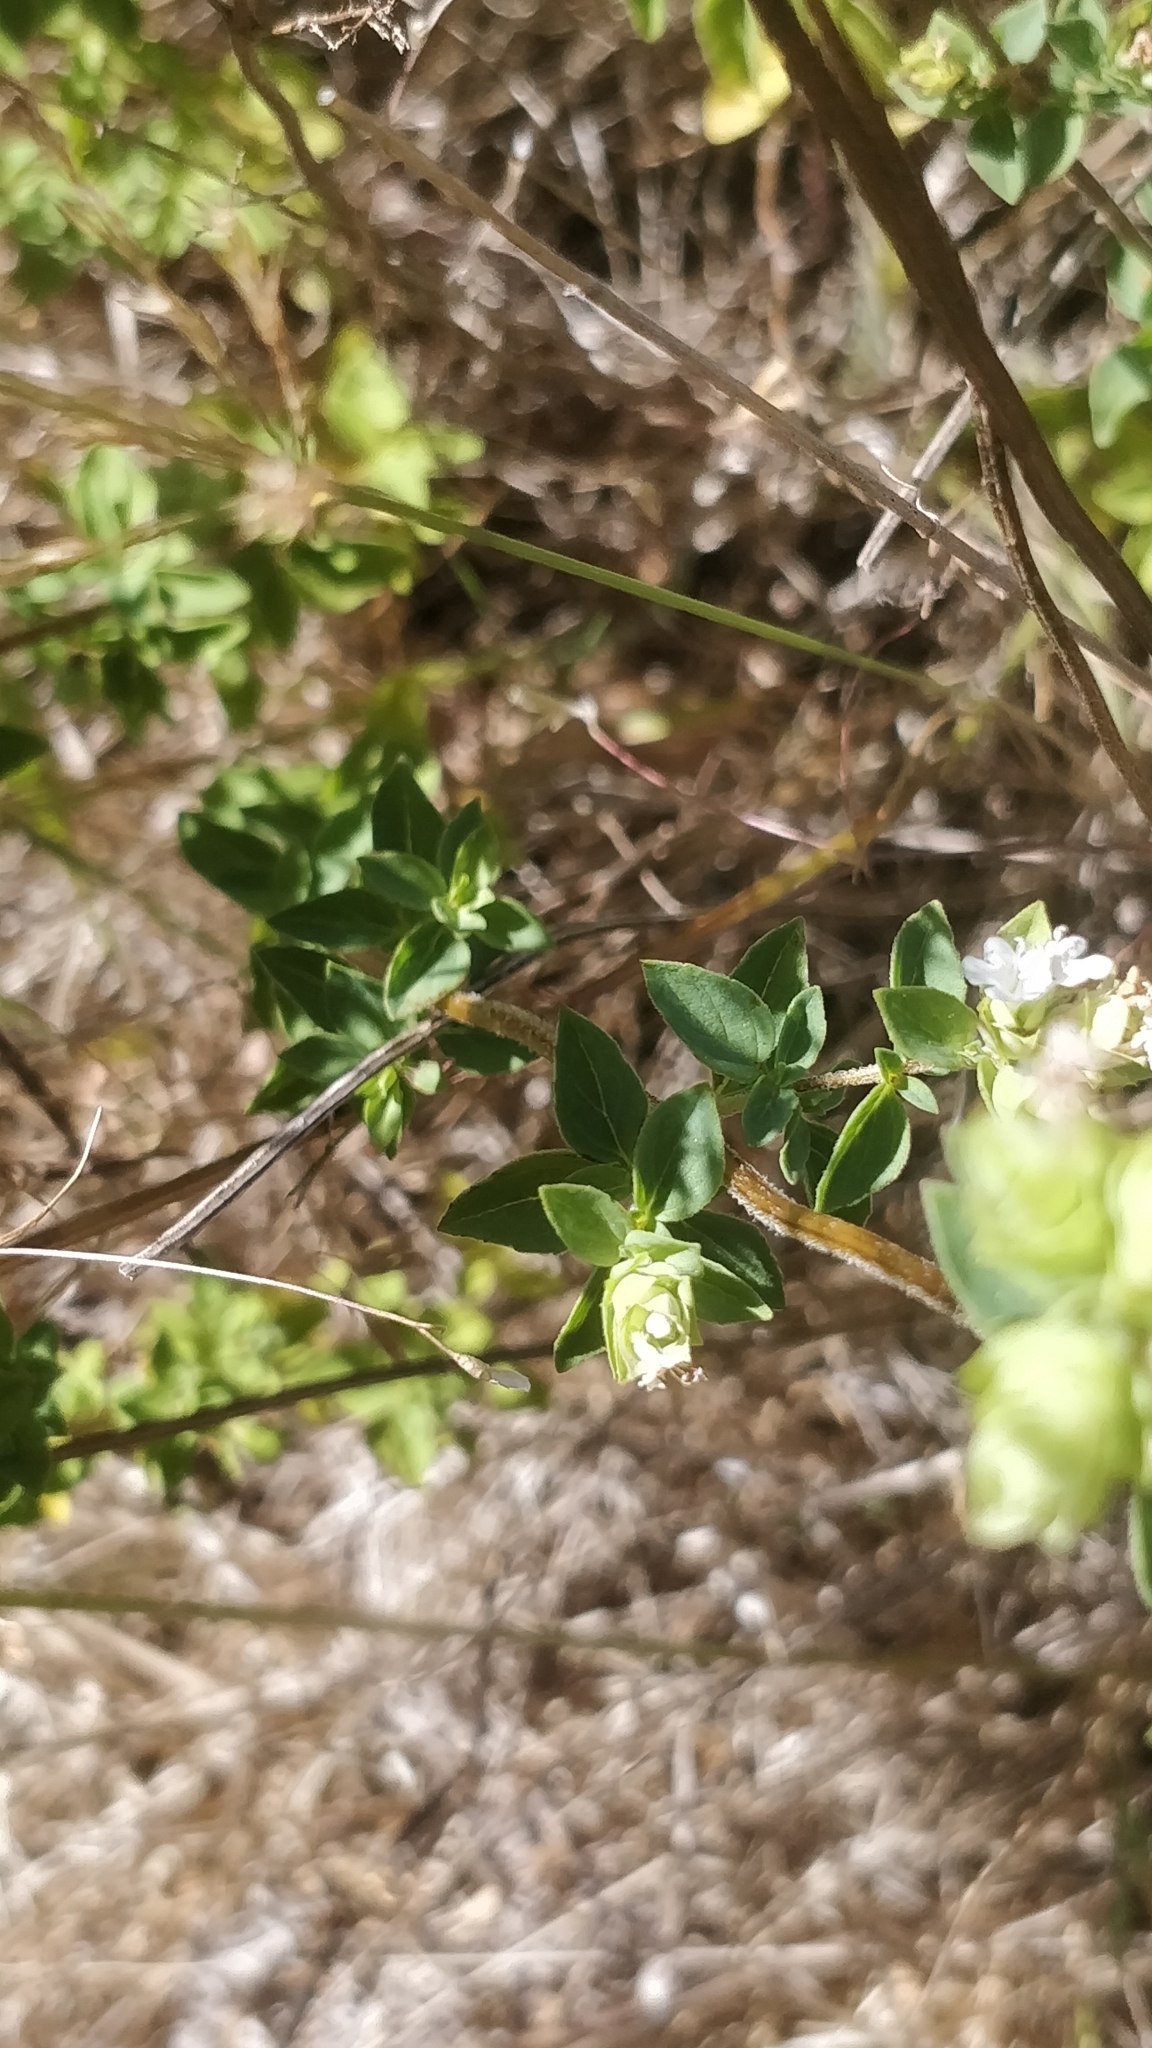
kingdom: Plantae
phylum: Tracheophyta
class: Magnoliopsida
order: Lamiales
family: Lamiaceae
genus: Origanum
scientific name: Origanum vulgare
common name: Wild marjoram
